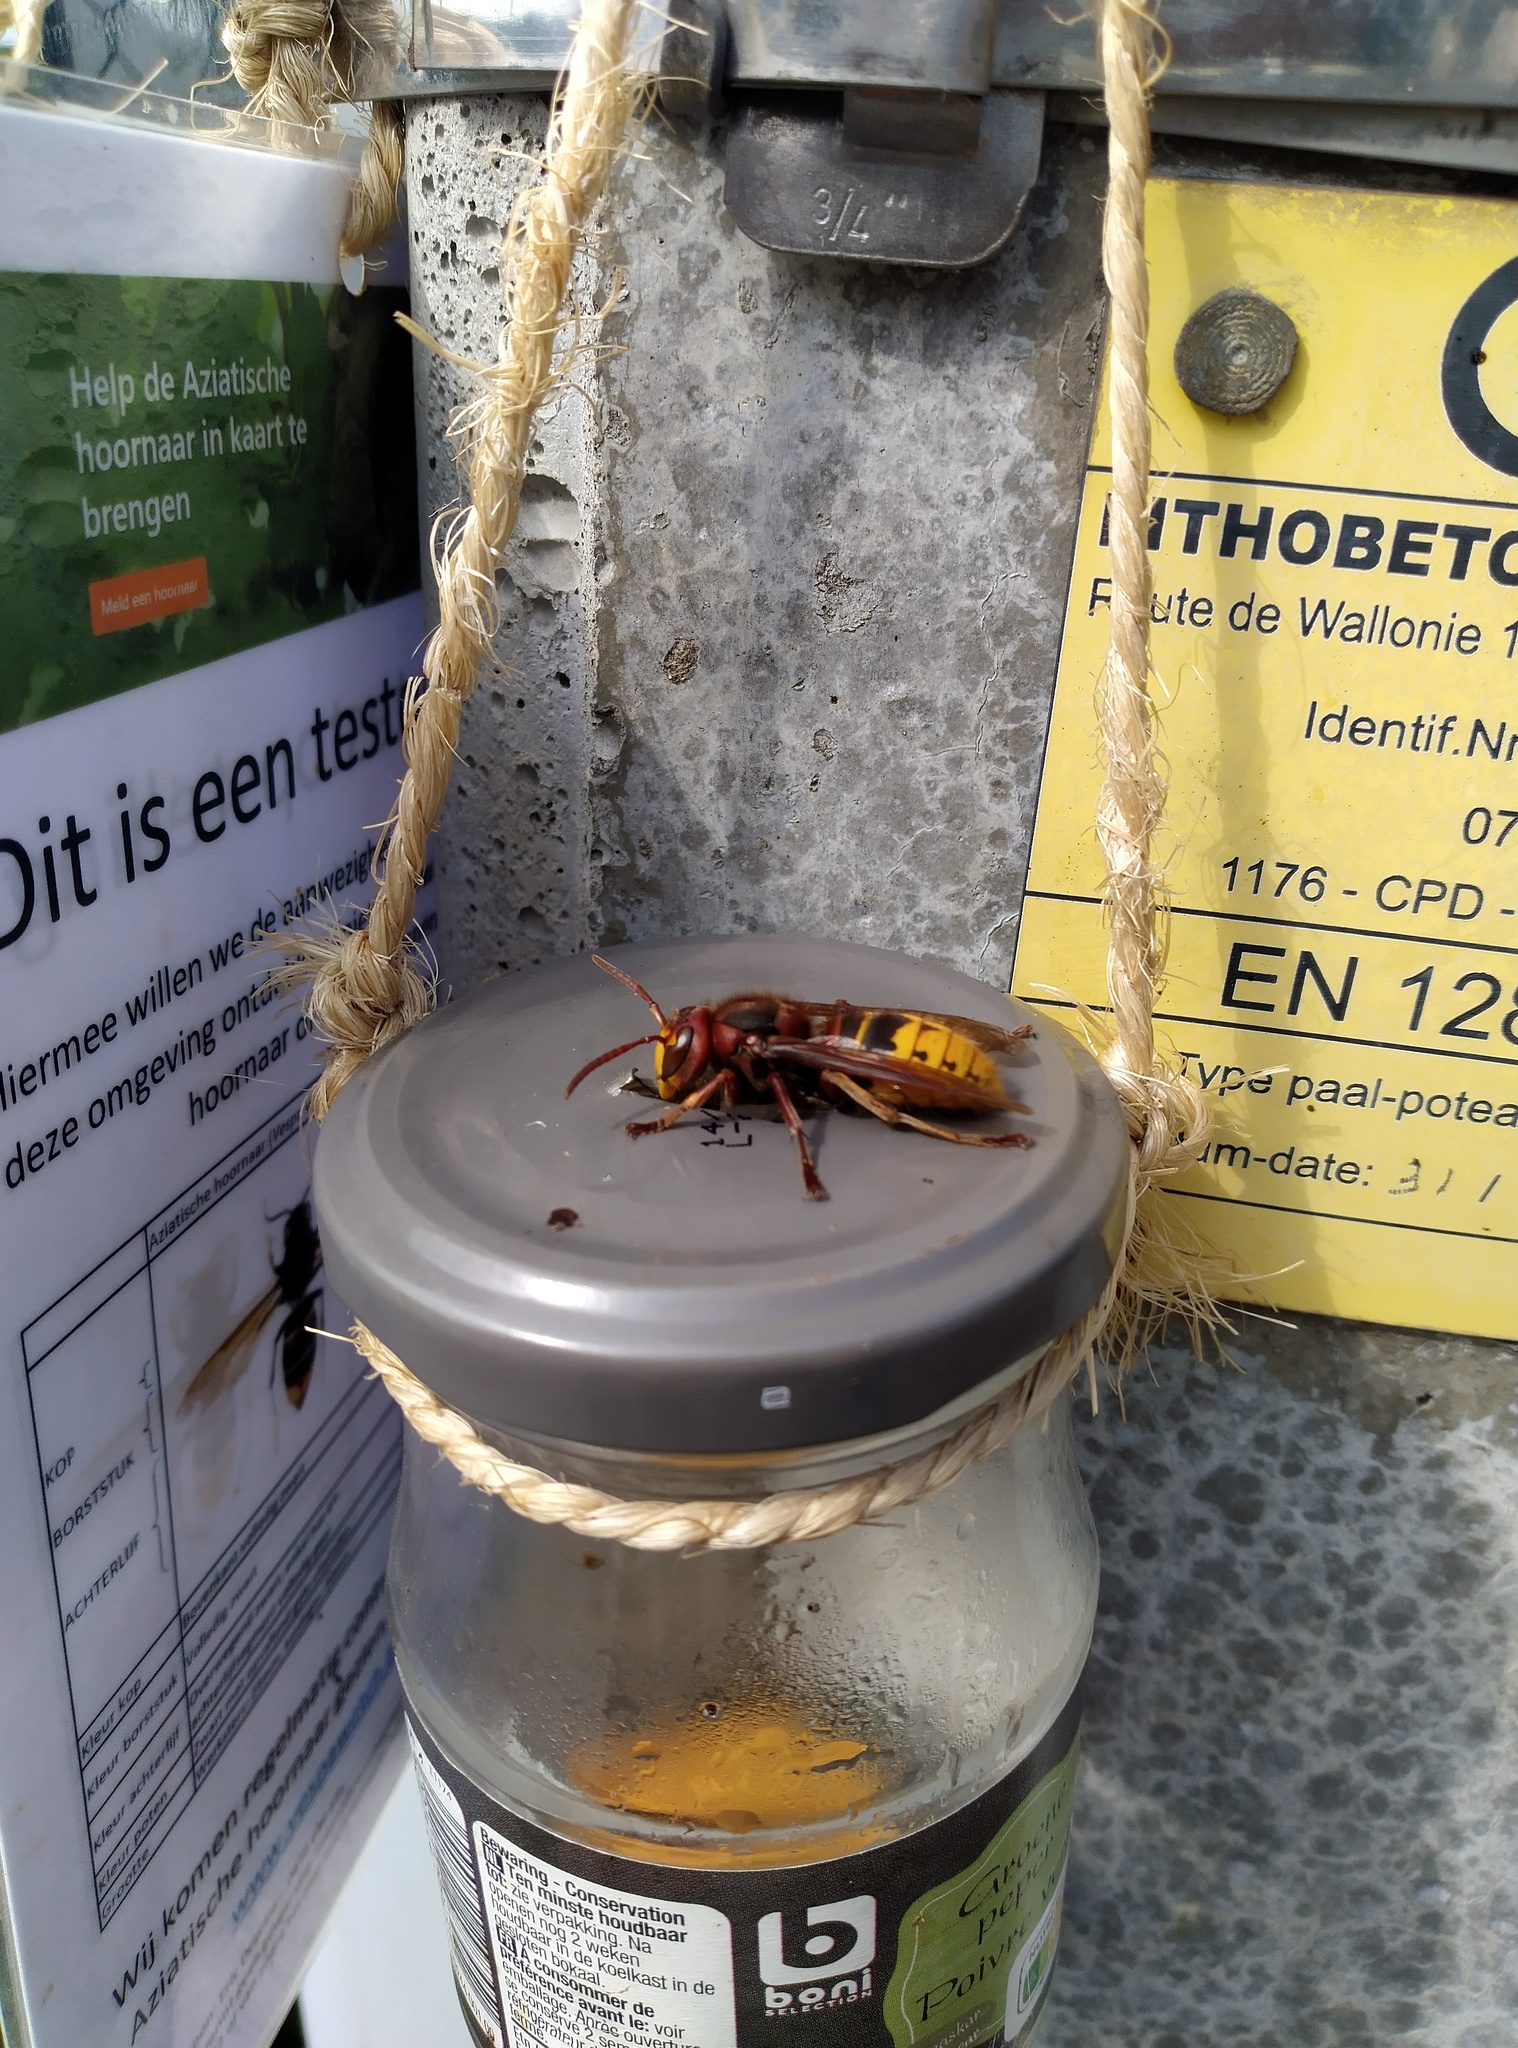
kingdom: Animalia
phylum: Arthropoda
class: Insecta
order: Hymenoptera
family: Vespidae
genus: Vespa
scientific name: Vespa crabro
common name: Hornet
